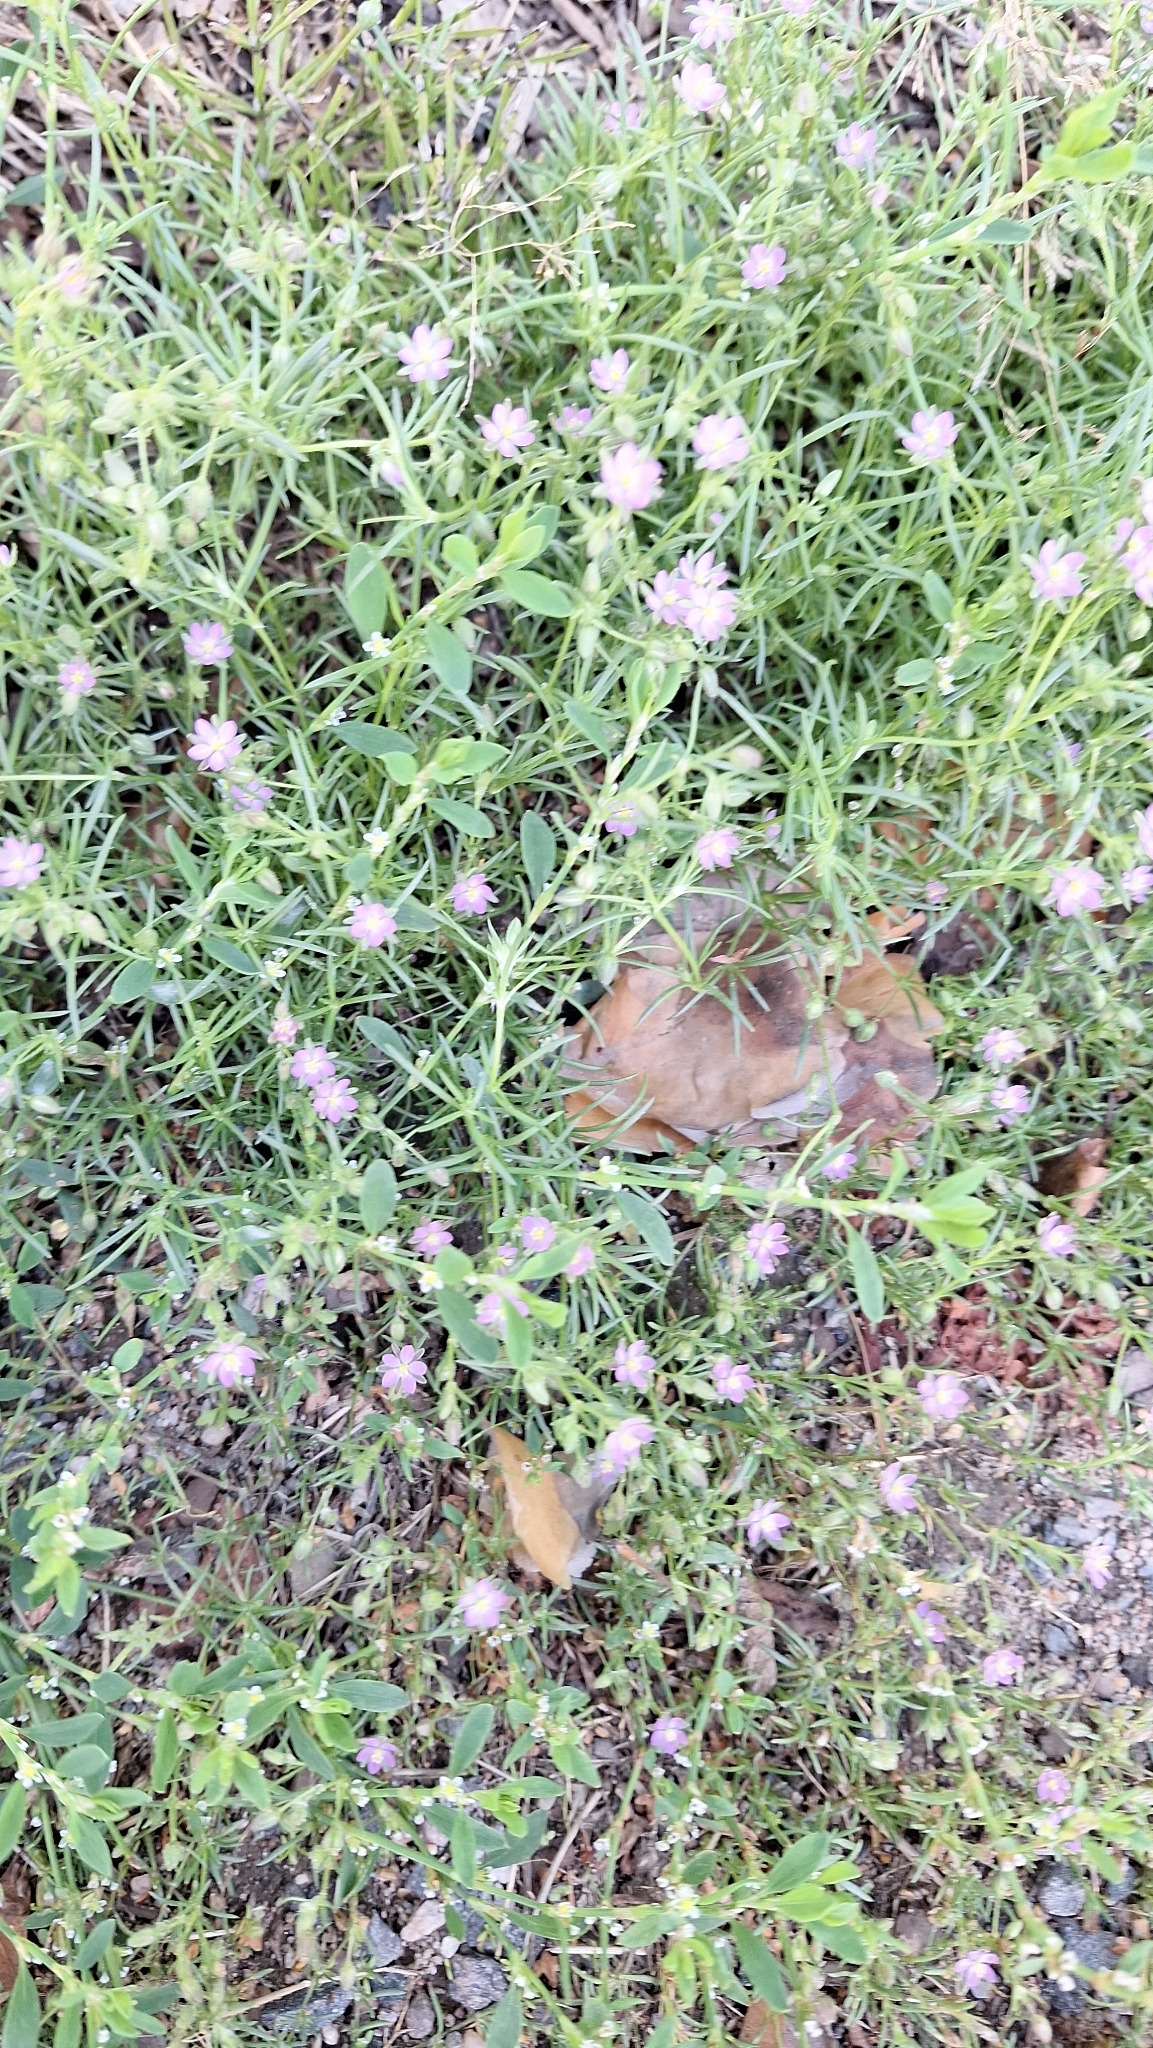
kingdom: Plantae
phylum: Tracheophyta
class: Magnoliopsida
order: Caryophyllales
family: Caryophyllaceae
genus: Spergularia
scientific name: Spergularia rubra
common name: Red sand-spurrey
